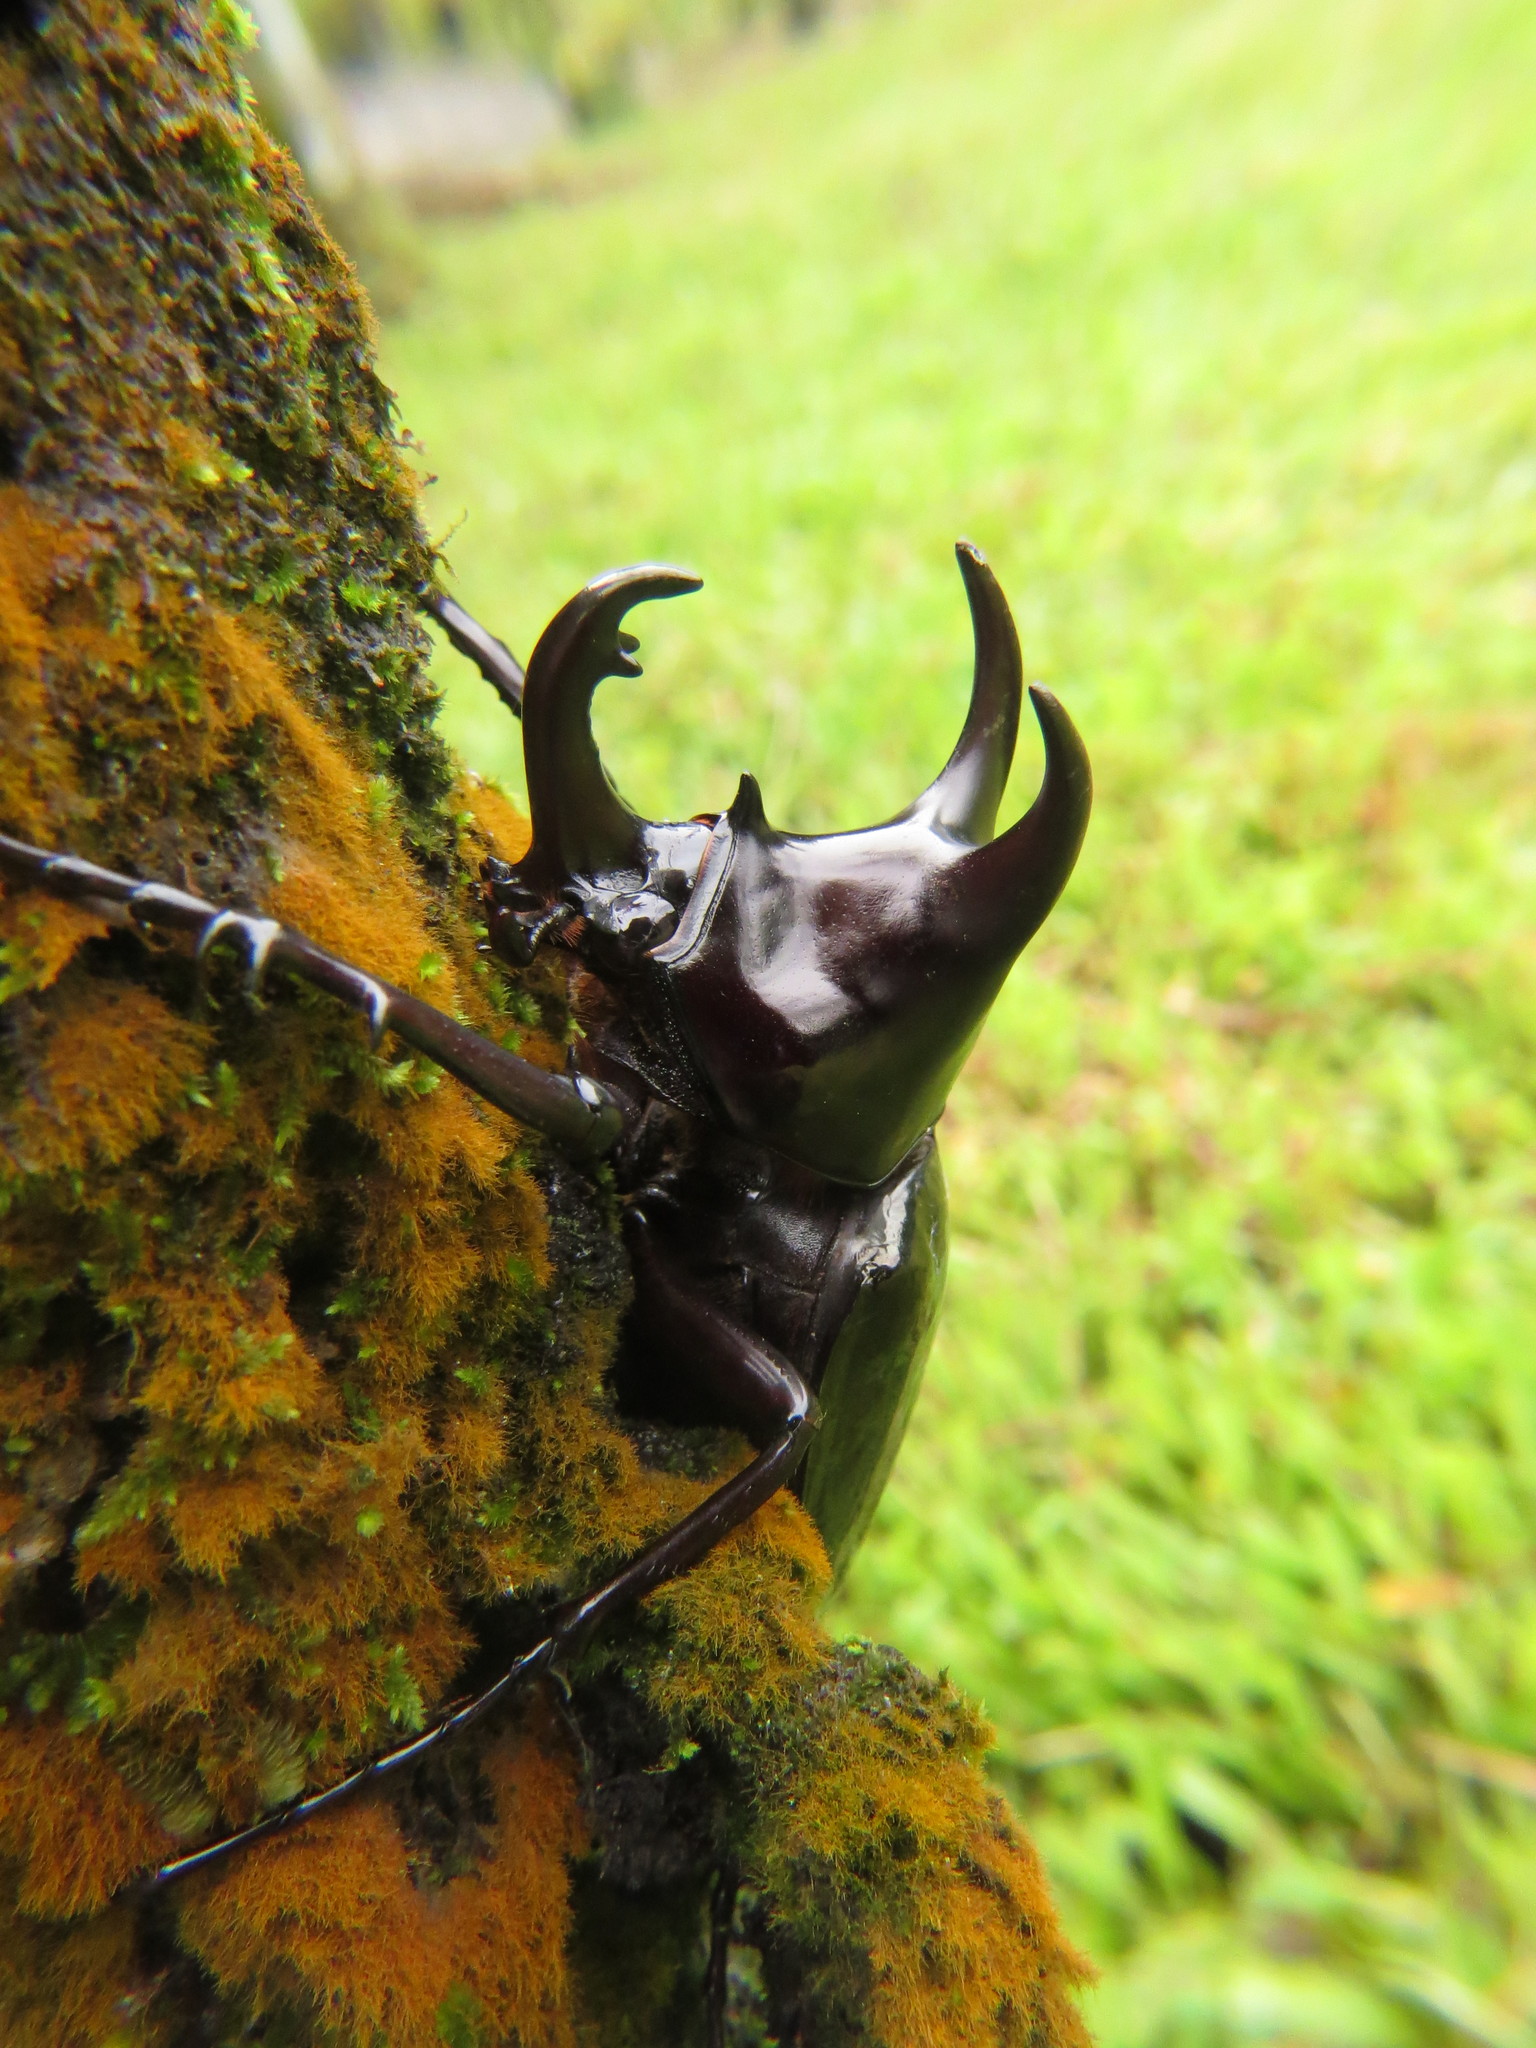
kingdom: Animalia
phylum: Arthropoda
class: Insecta
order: Coleoptera
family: Scarabaeidae
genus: Chalcosoma
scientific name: Chalcosoma moellenkampi
